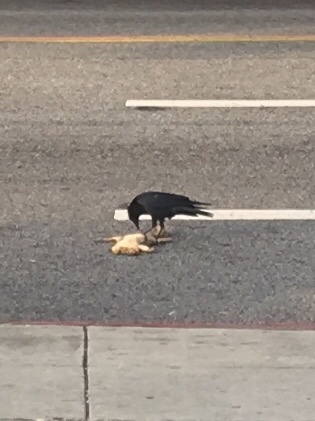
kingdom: Animalia
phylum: Chordata
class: Mammalia
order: Rodentia
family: Sciuridae
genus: Sciurus
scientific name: Sciurus niger
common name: Fox squirrel
